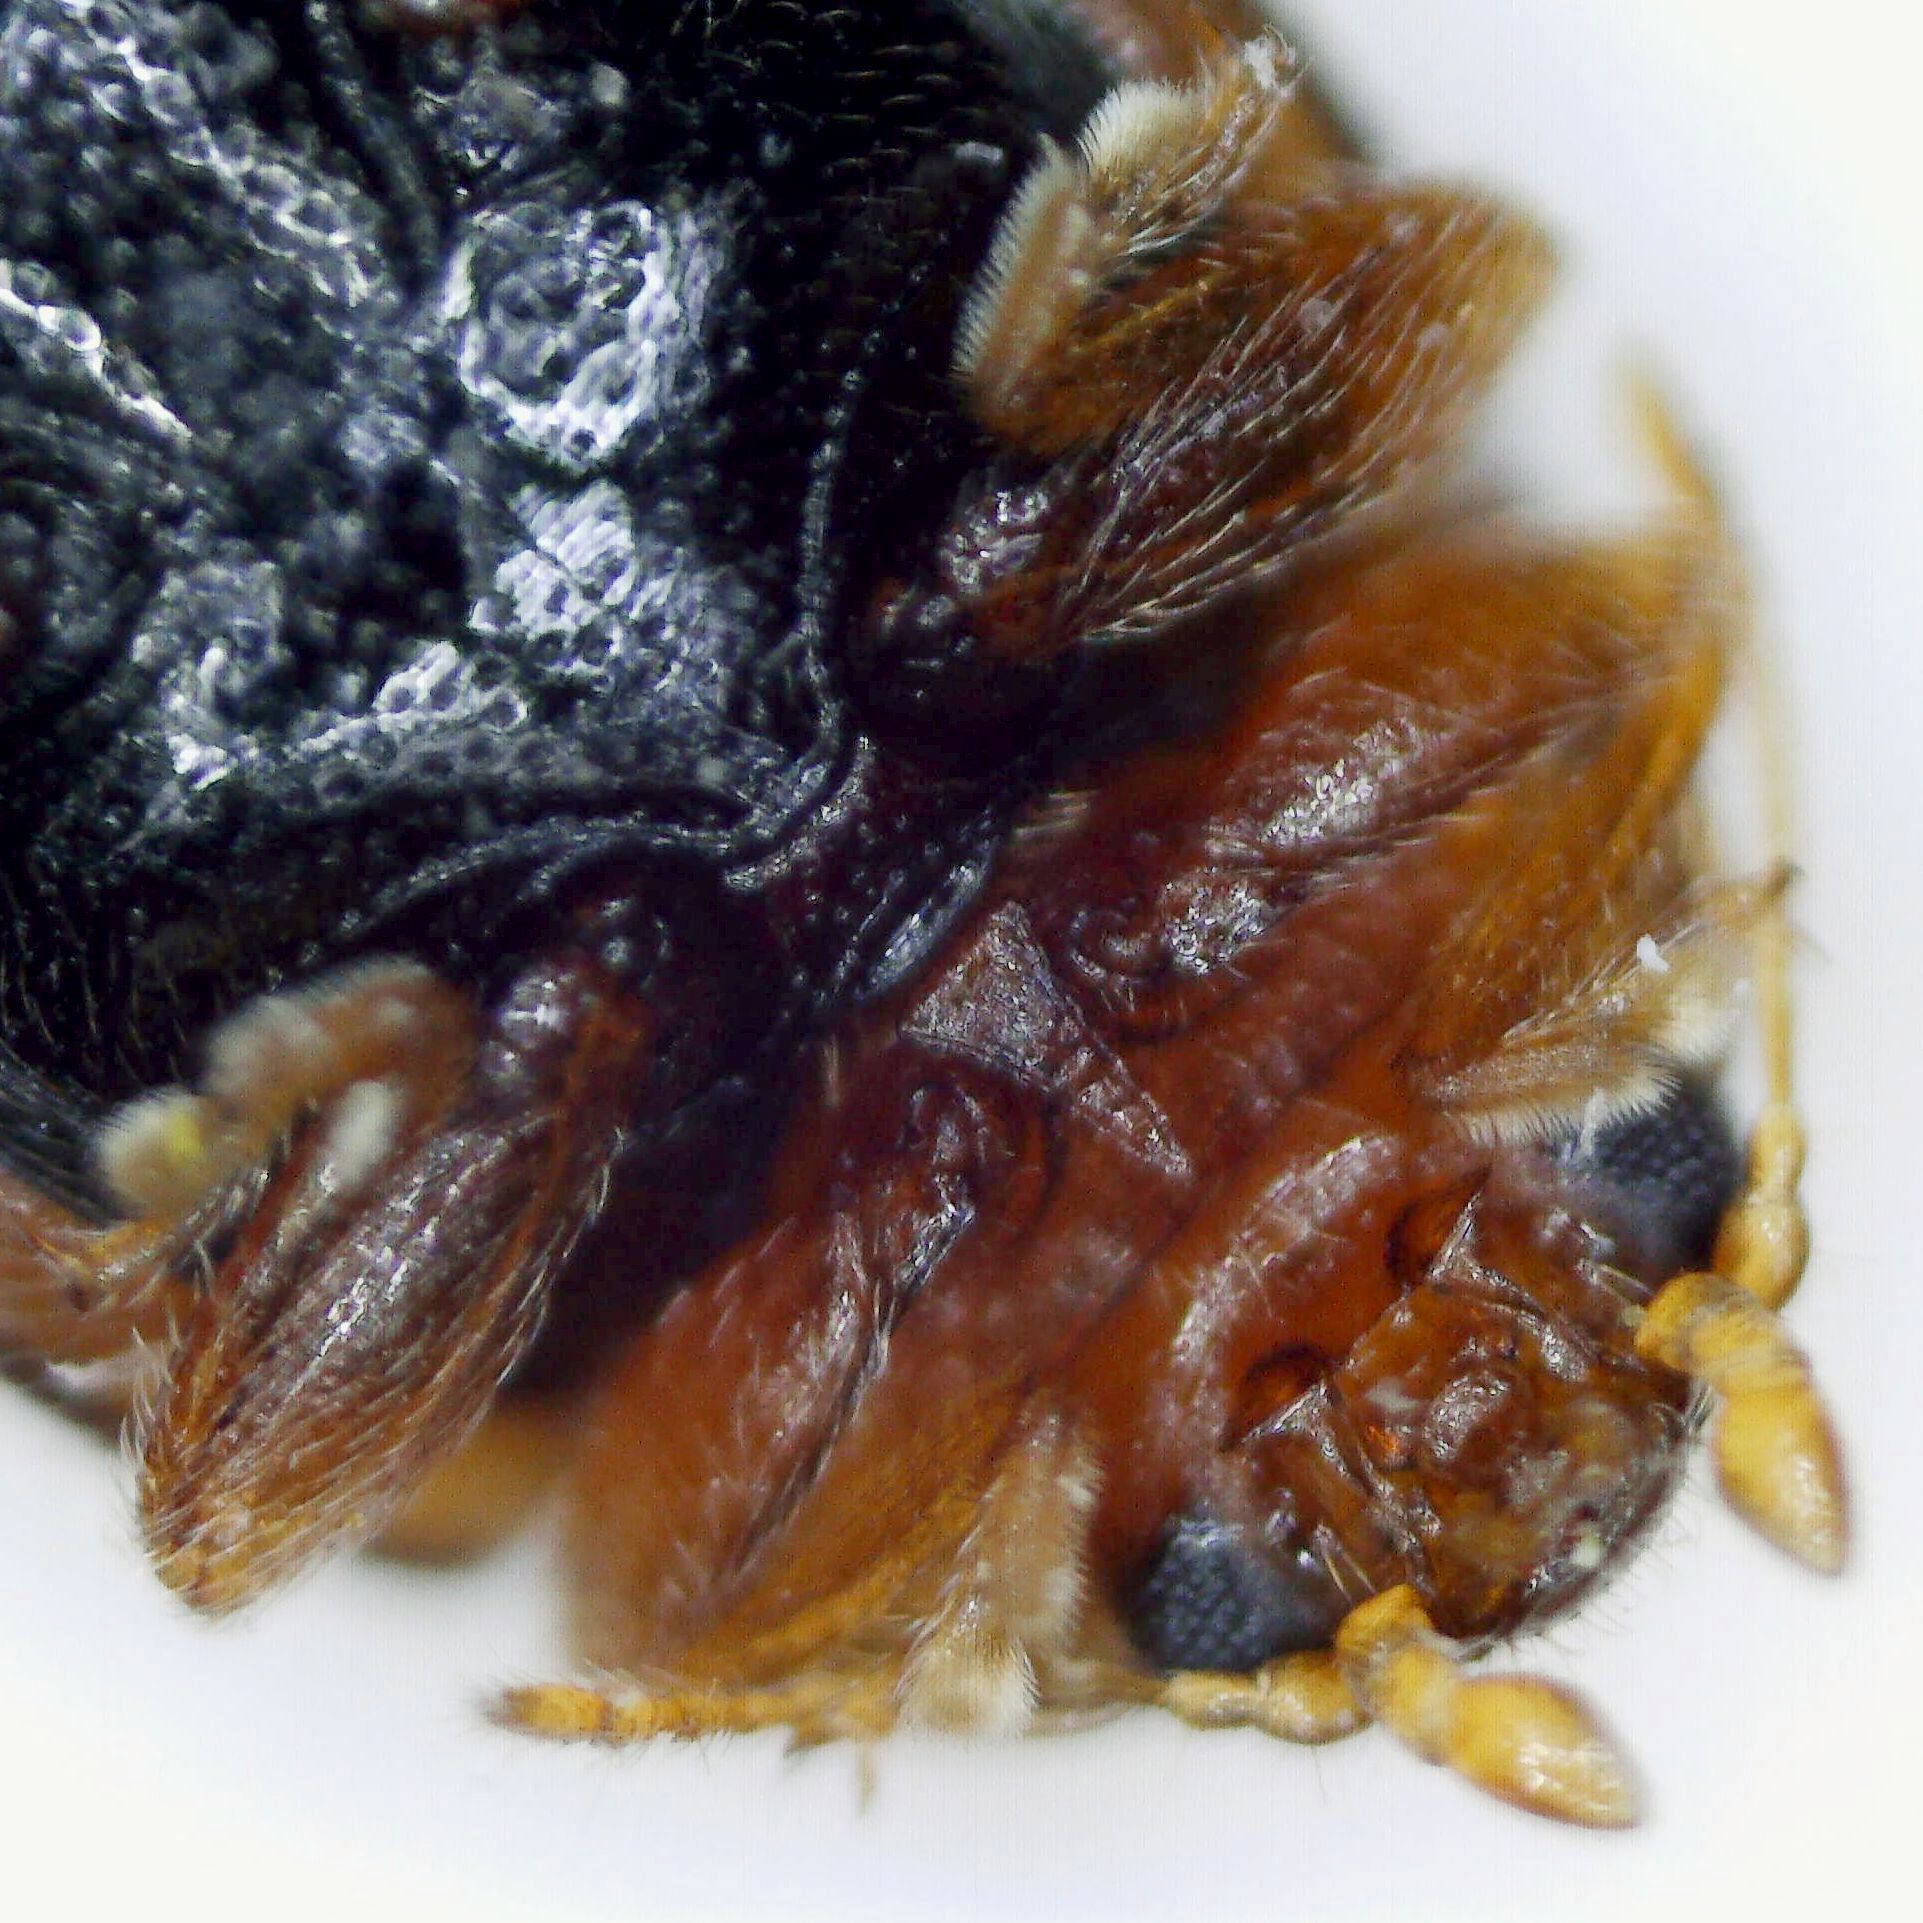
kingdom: Animalia
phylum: Arthropoda
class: Insecta
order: Coleoptera
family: Coccinellidae
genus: Rhyzobius
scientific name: Rhyzobius litura
